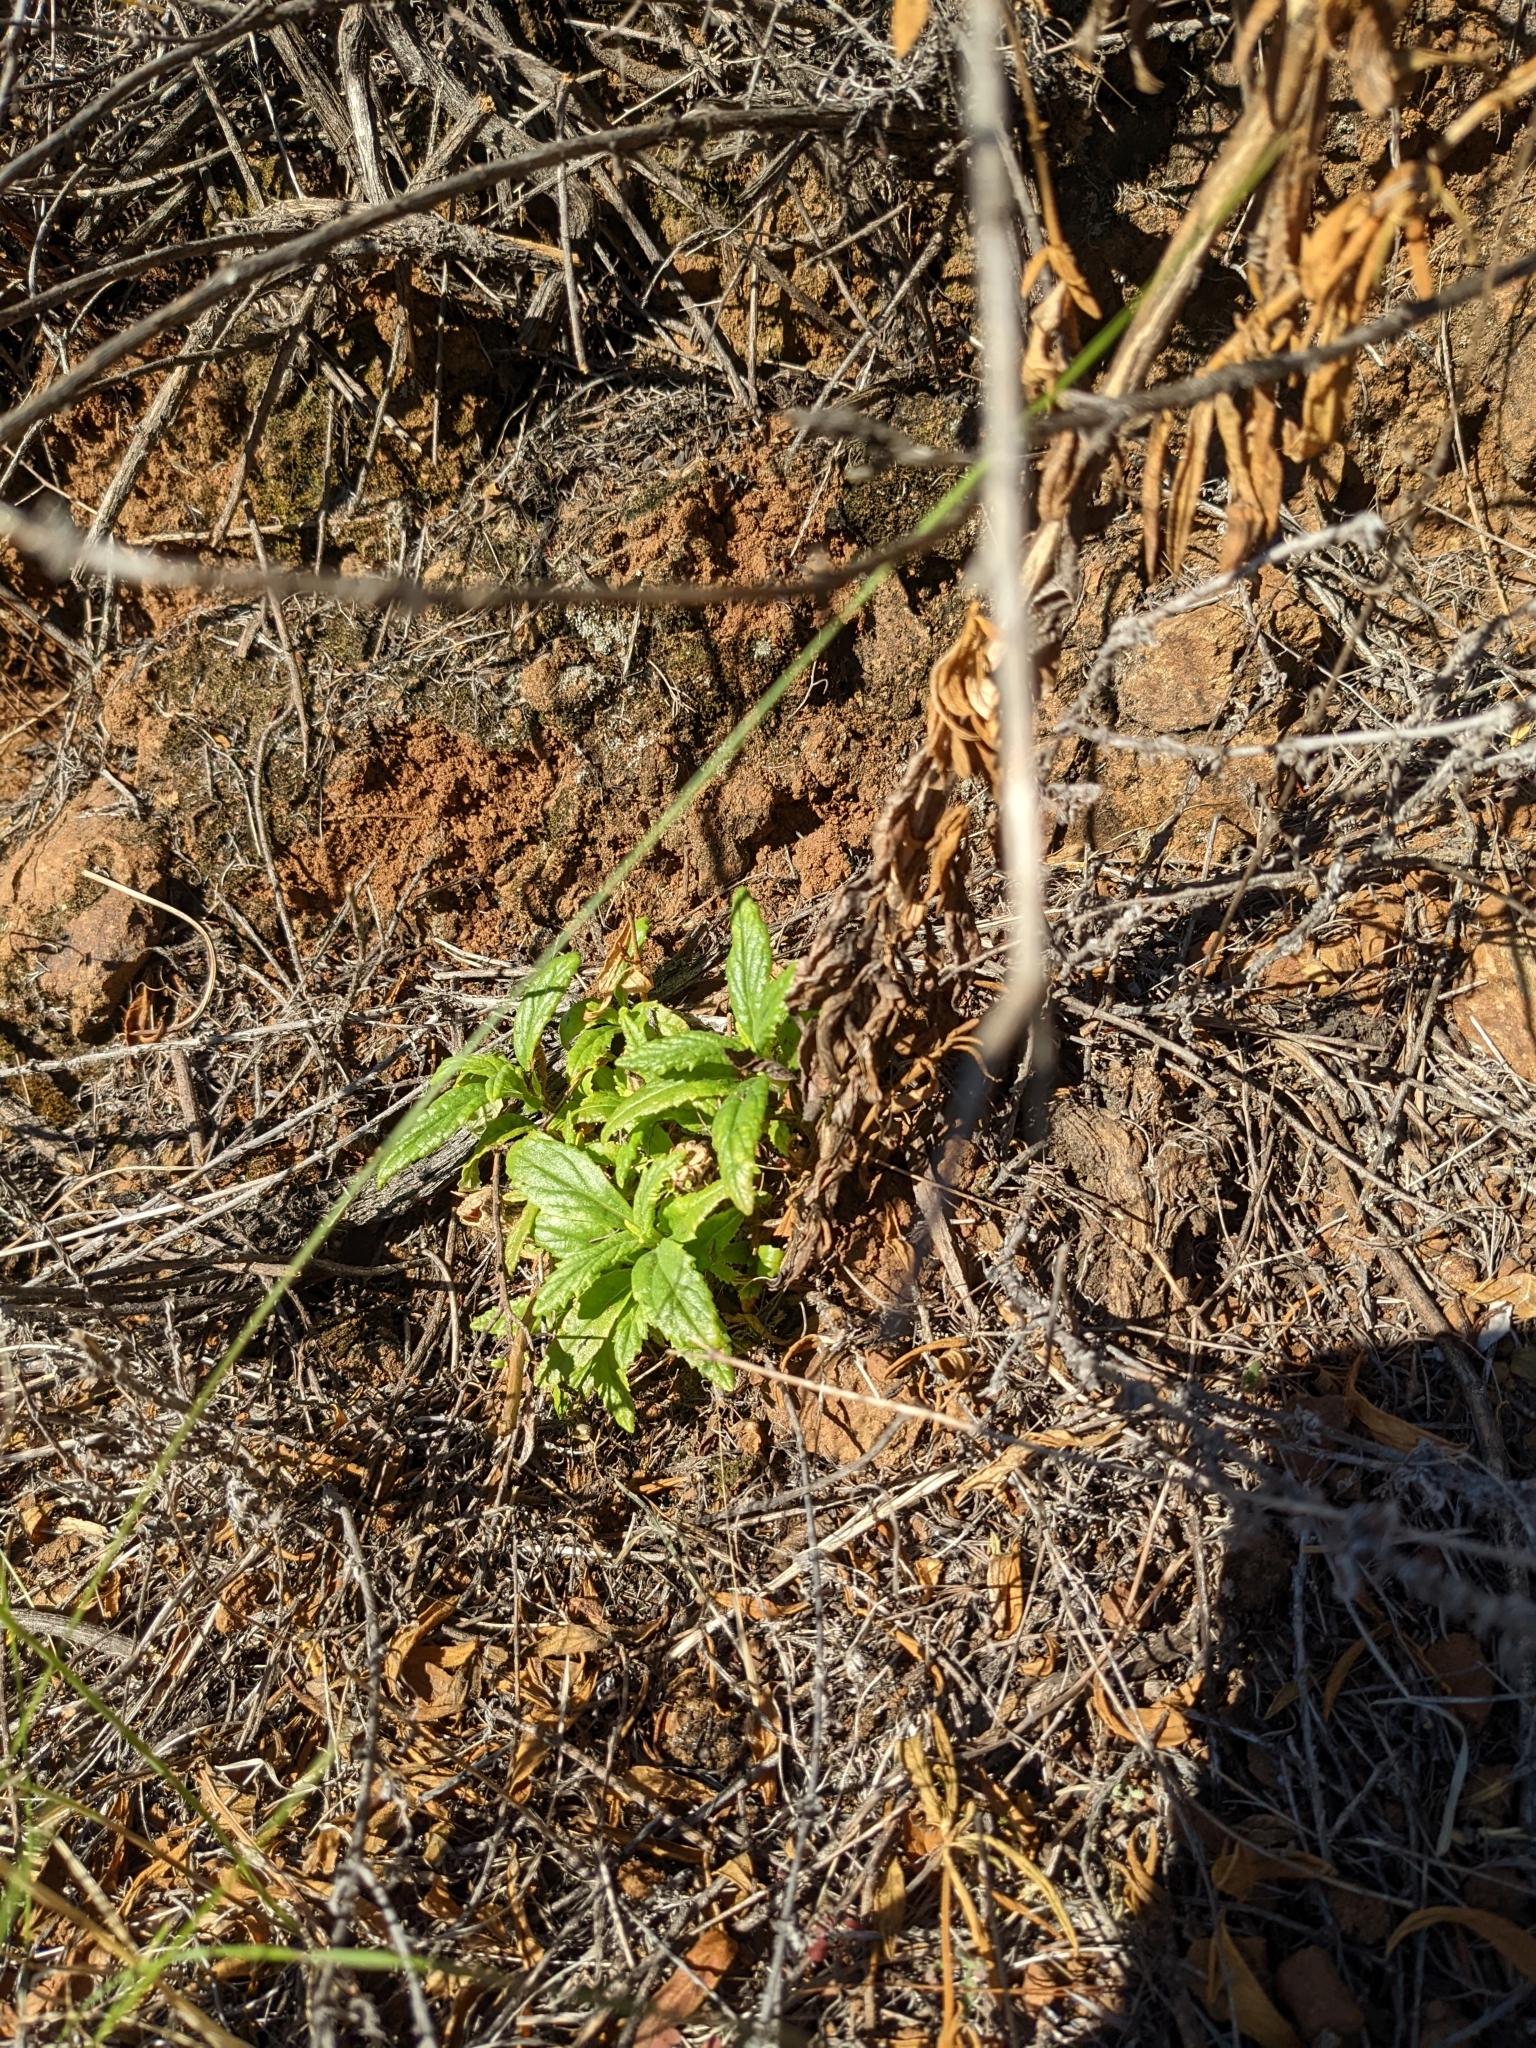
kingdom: Plantae
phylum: Tracheophyta
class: Magnoliopsida
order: Lamiales
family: Phrymaceae
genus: Diplacus
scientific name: Diplacus aurantiacus
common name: Bush monkey-flower
